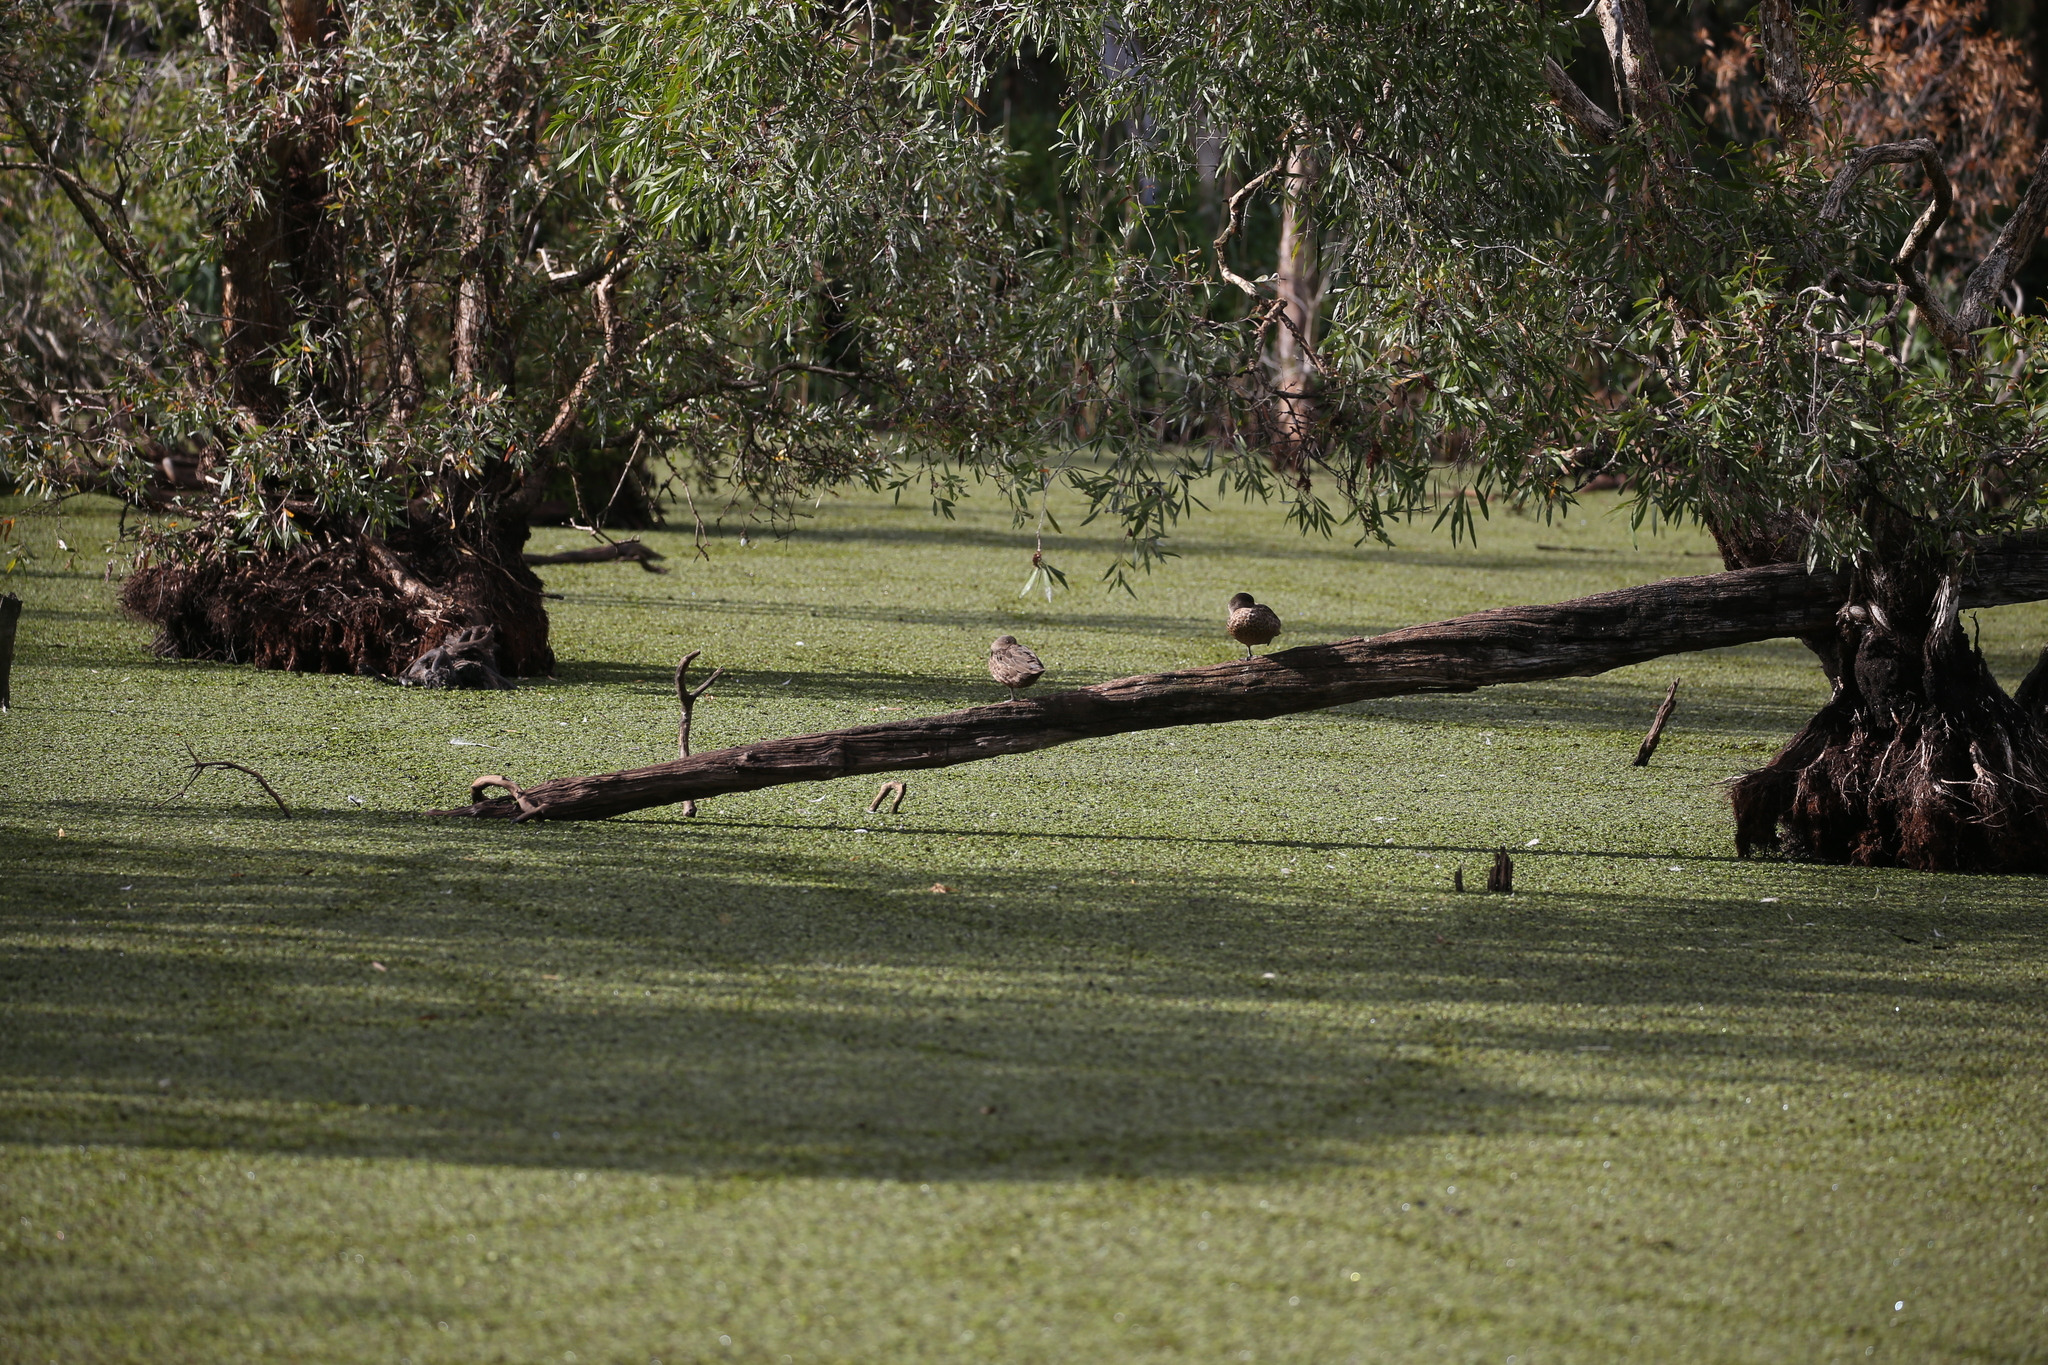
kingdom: Animalia
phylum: Chordata
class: Aves
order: Anseriformes
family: Anatidae
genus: Anas
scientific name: Anas gracilis
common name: Grey teal
